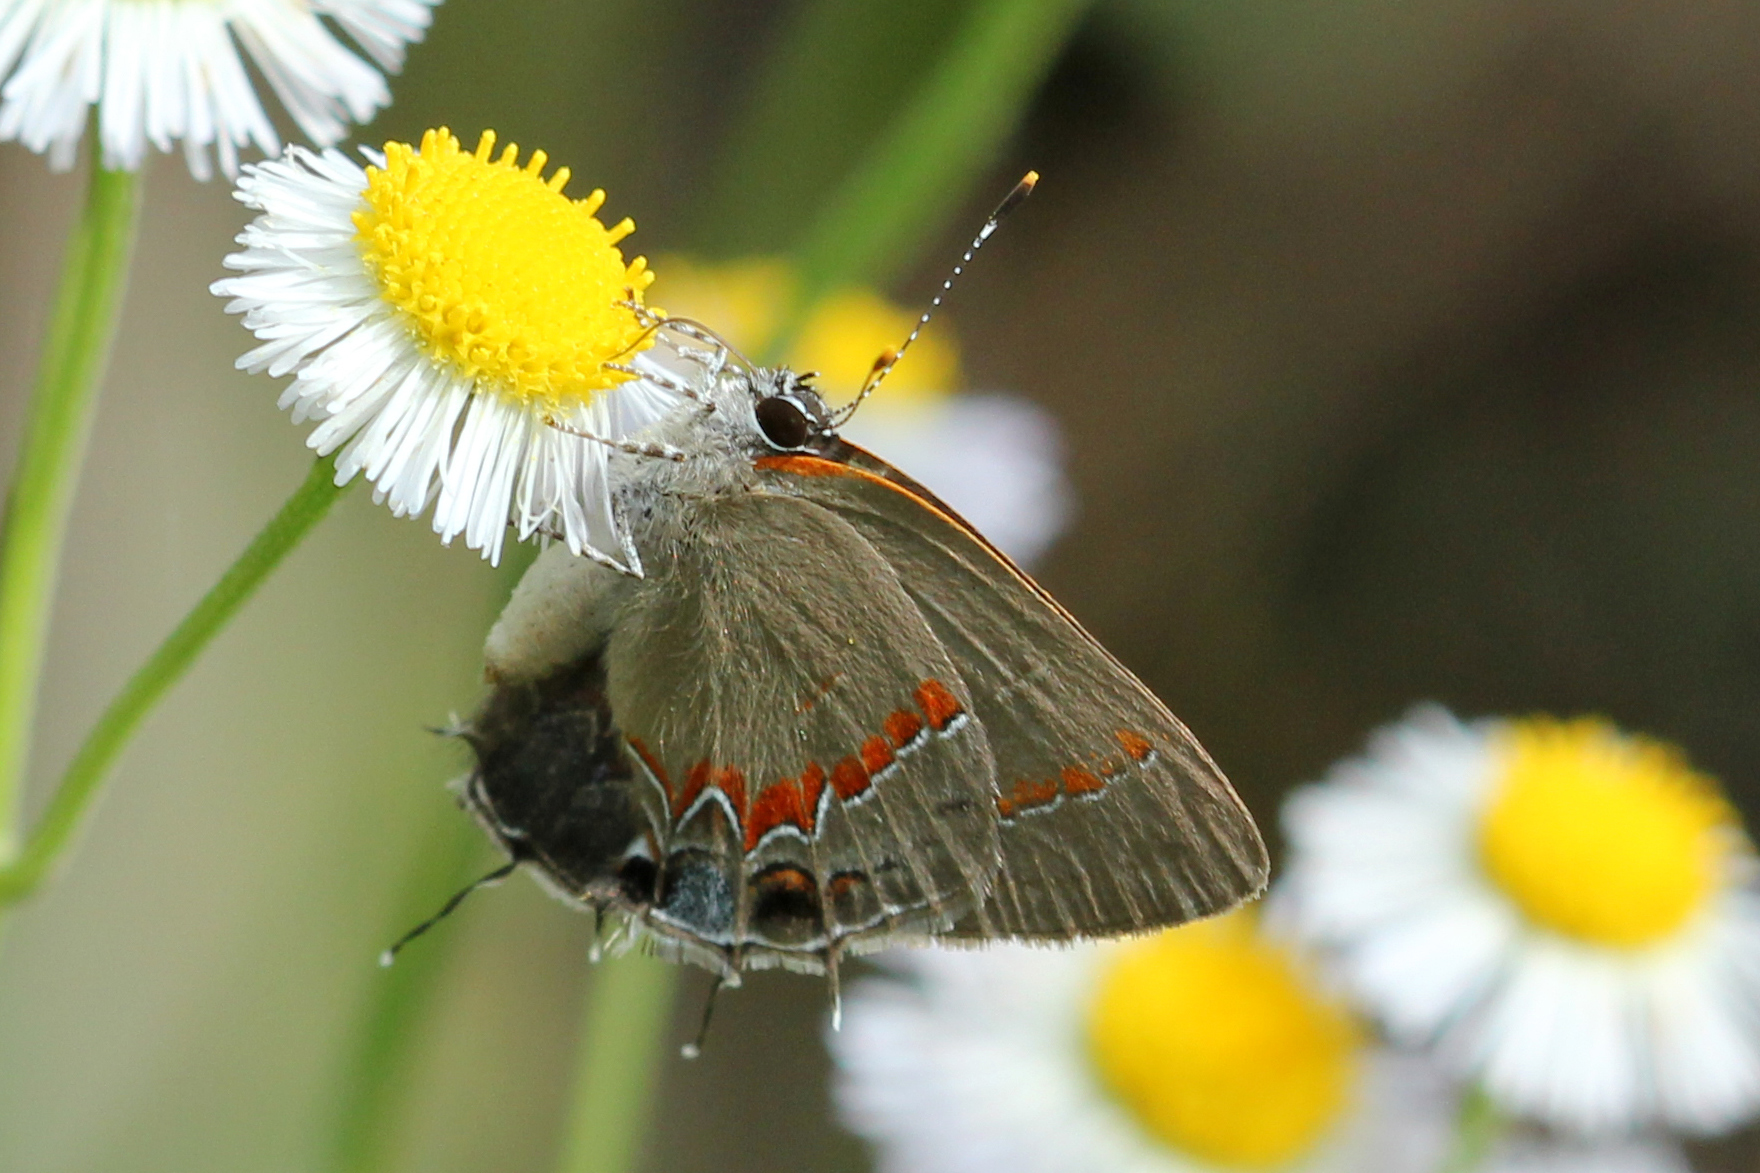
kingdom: Animalia
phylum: Arthropoda
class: Insecta
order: Lepidoptera
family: Lycaenidae
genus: Calycopis
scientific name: Calycopis cecrops
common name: Red-banded hairstreak
